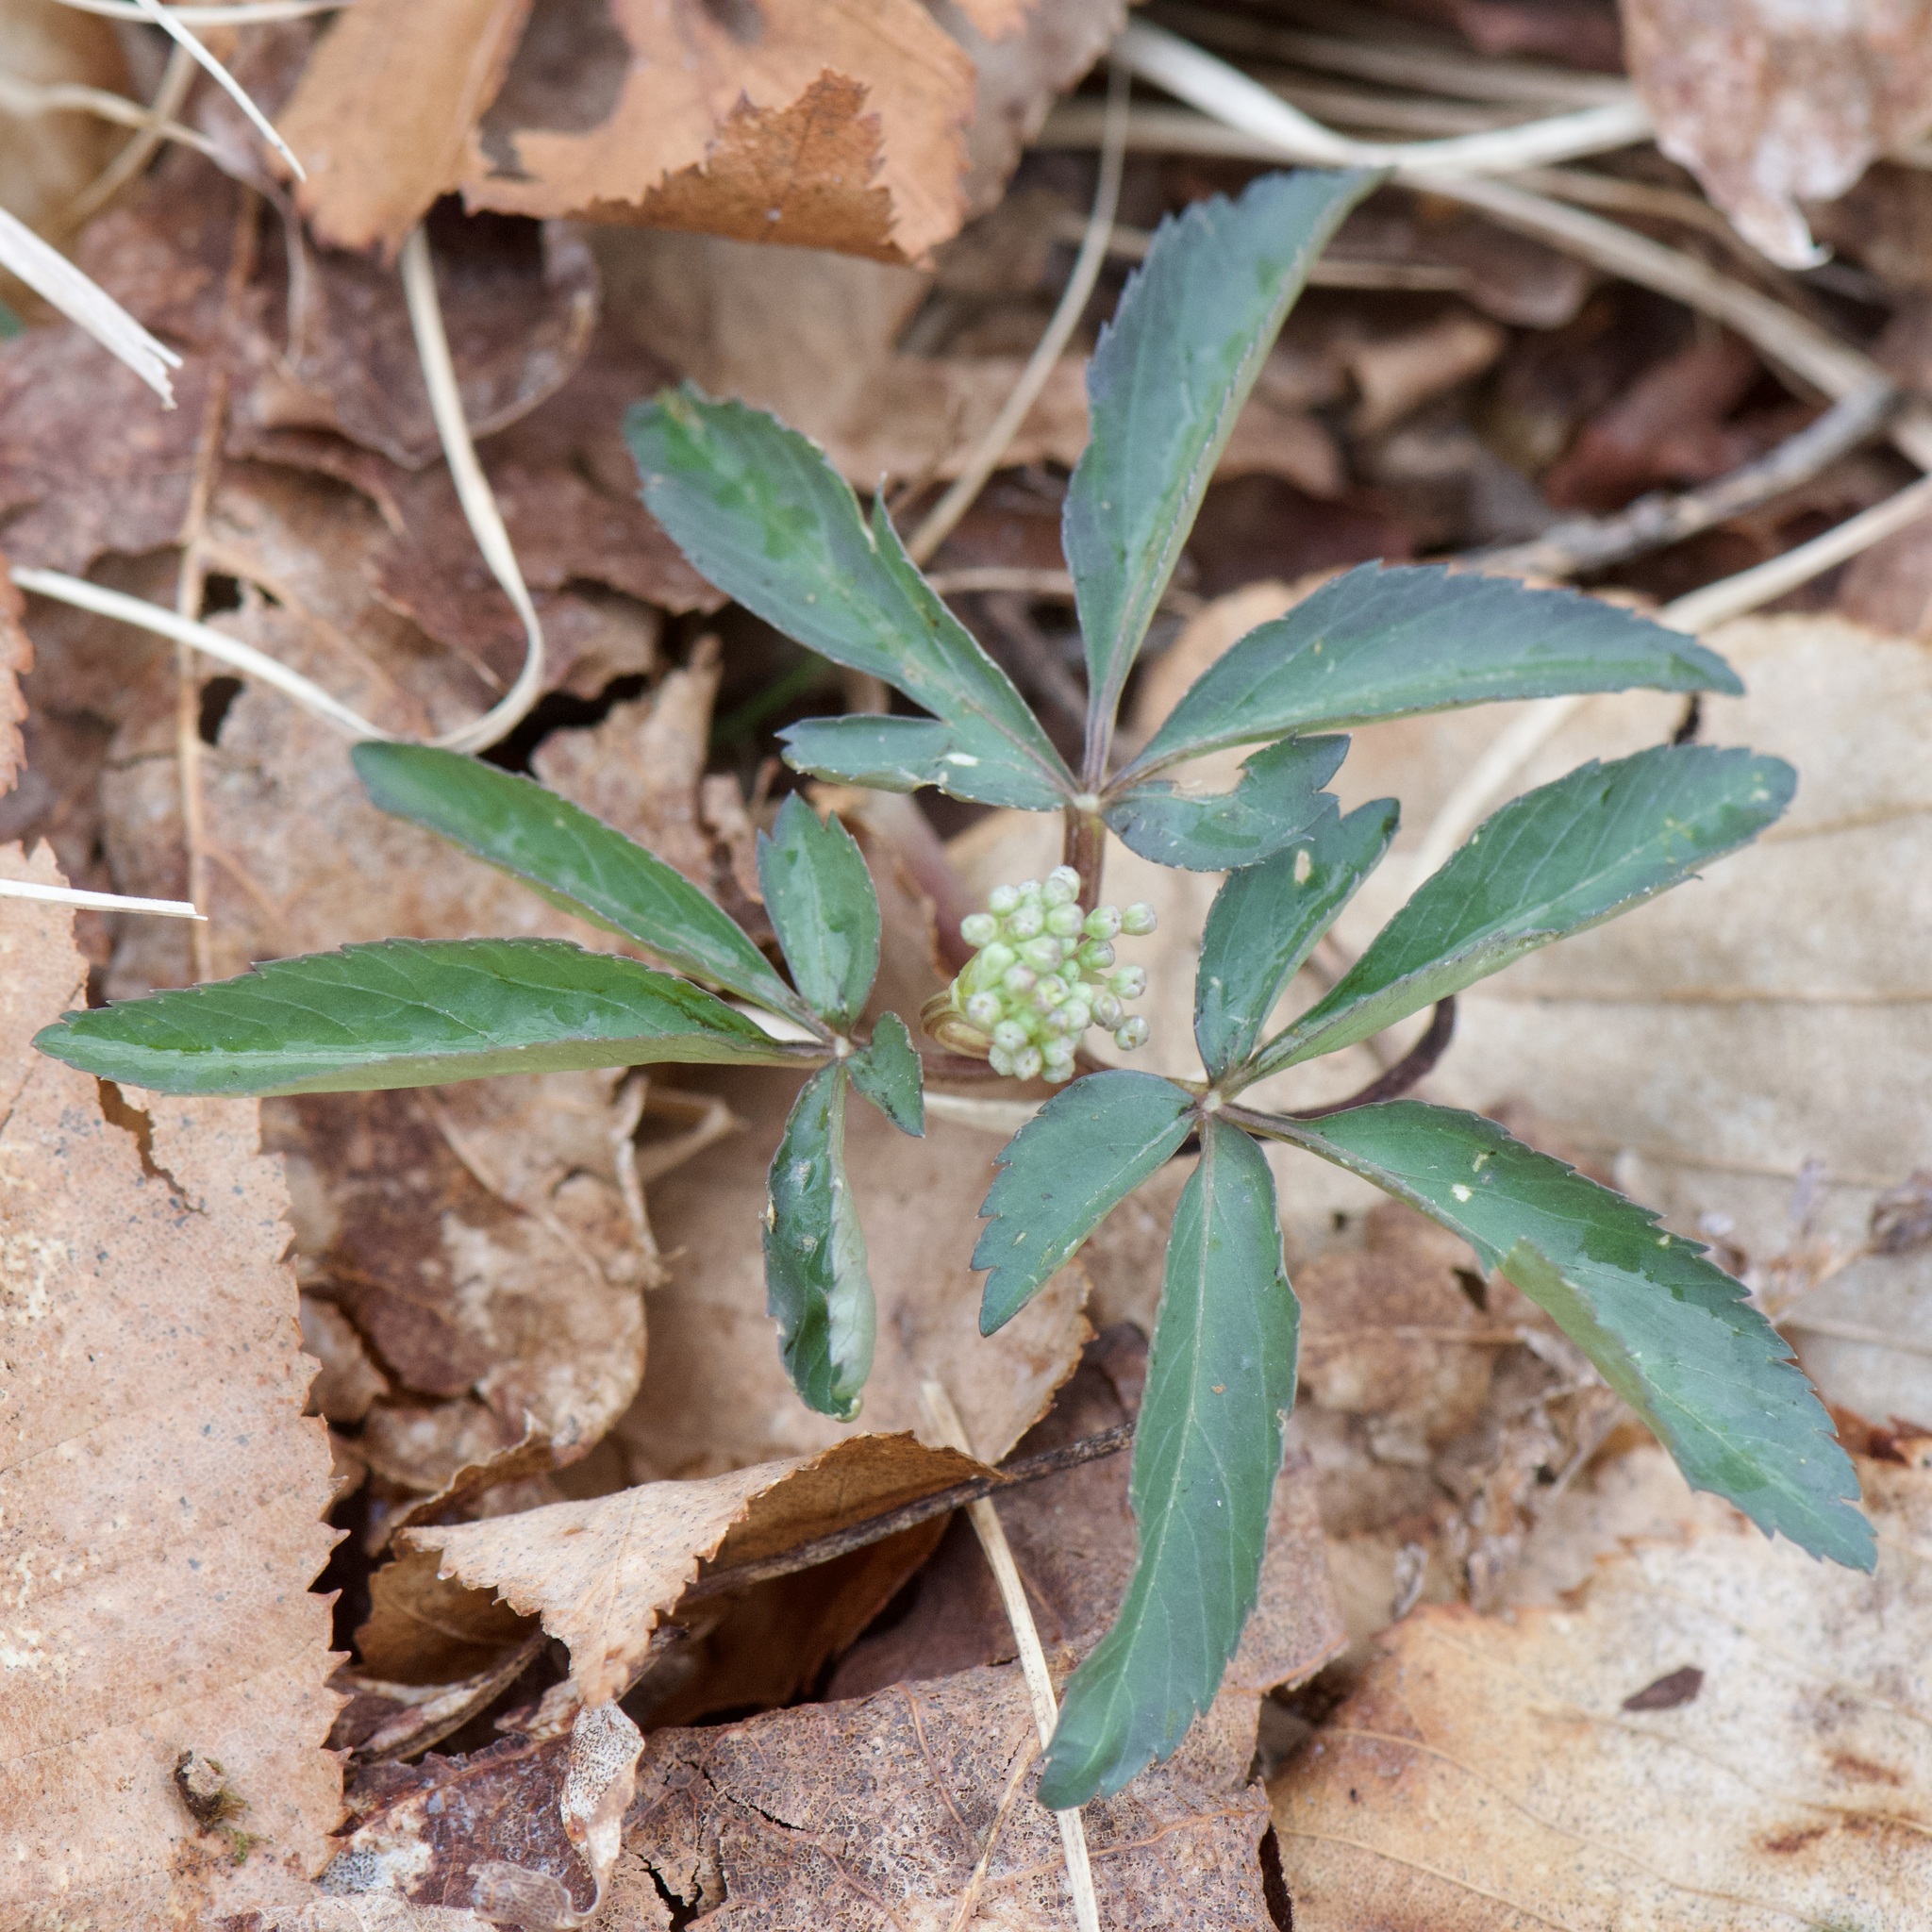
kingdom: Plantae
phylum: Tracheophyta
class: Magnoliopsida
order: Apiales
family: Araliaceae
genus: Panax
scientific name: Panax trifolius
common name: Dwarf ginseng
